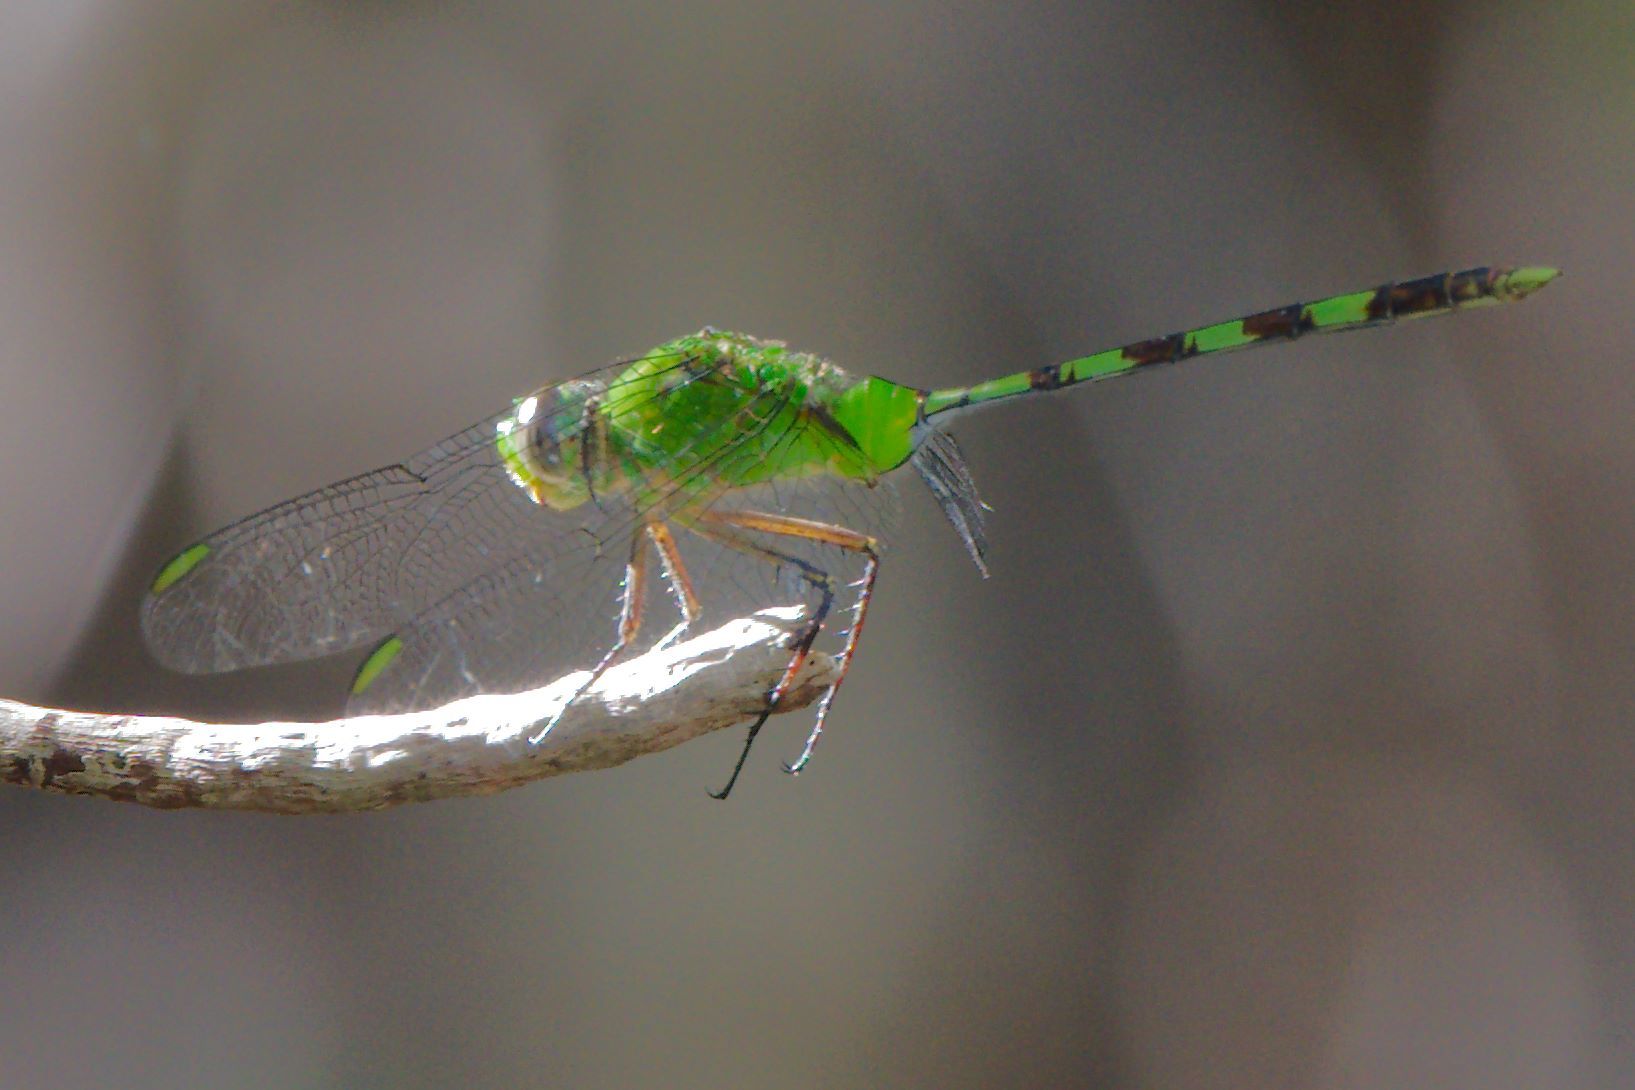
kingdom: Animalia
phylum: Arthropoda
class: Insecta
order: Odonata
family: Libellulidae
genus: Erythemis
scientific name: Erythemis vesiculosa
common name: Great pondhawk
